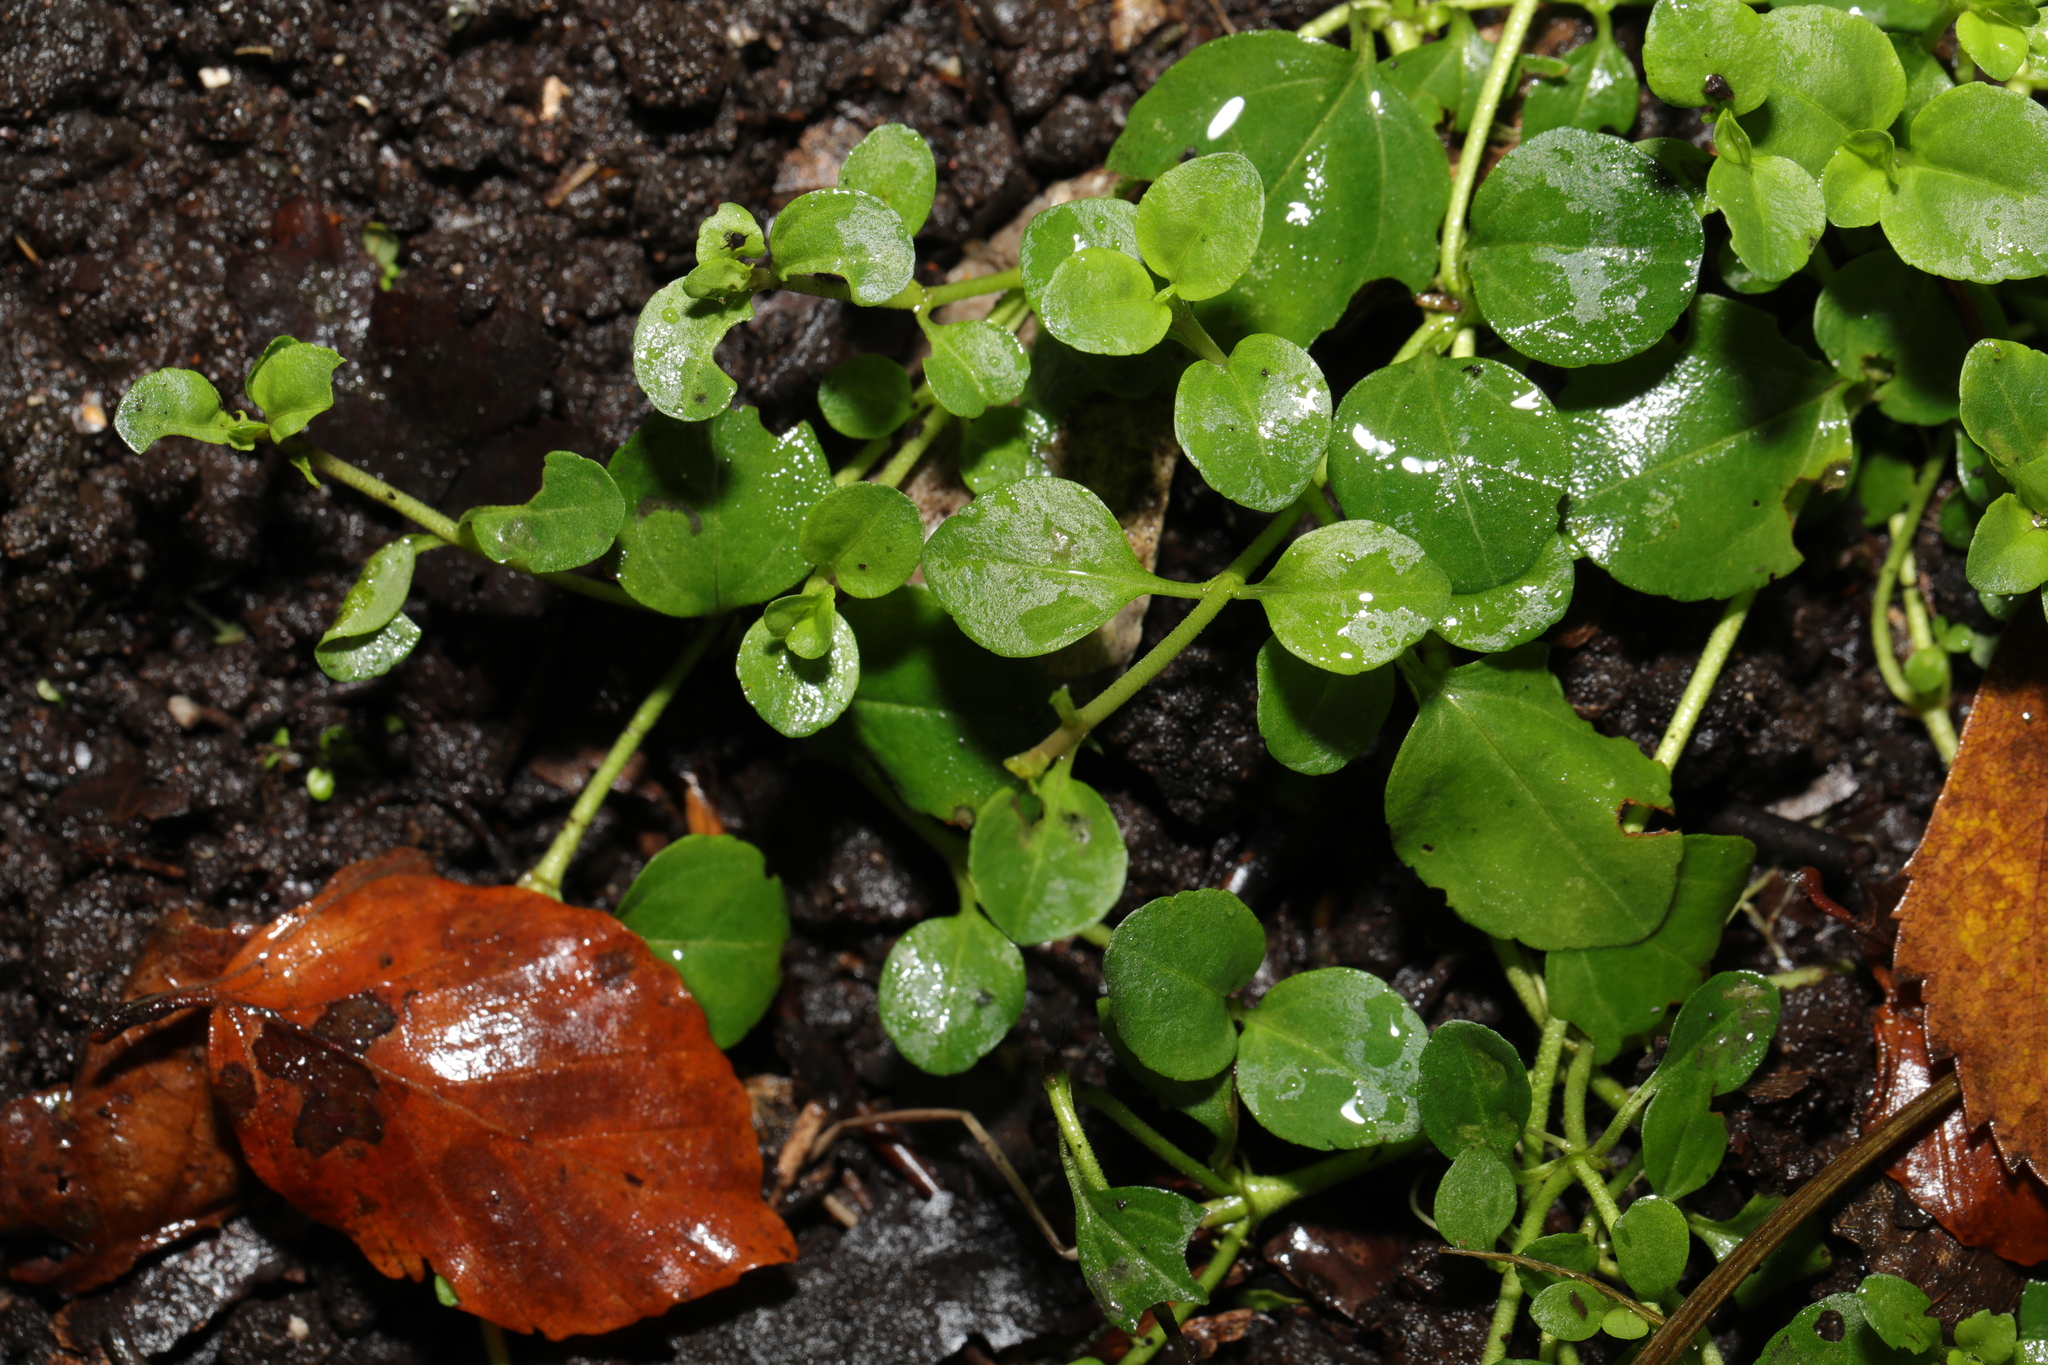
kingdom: Plantae
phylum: Tracheophyta
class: Magnoliopsida
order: Lamiales
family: Plantaginaceae
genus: Veronica
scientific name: Veronica serpyllifolia
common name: Thyme-leaved speedwell
